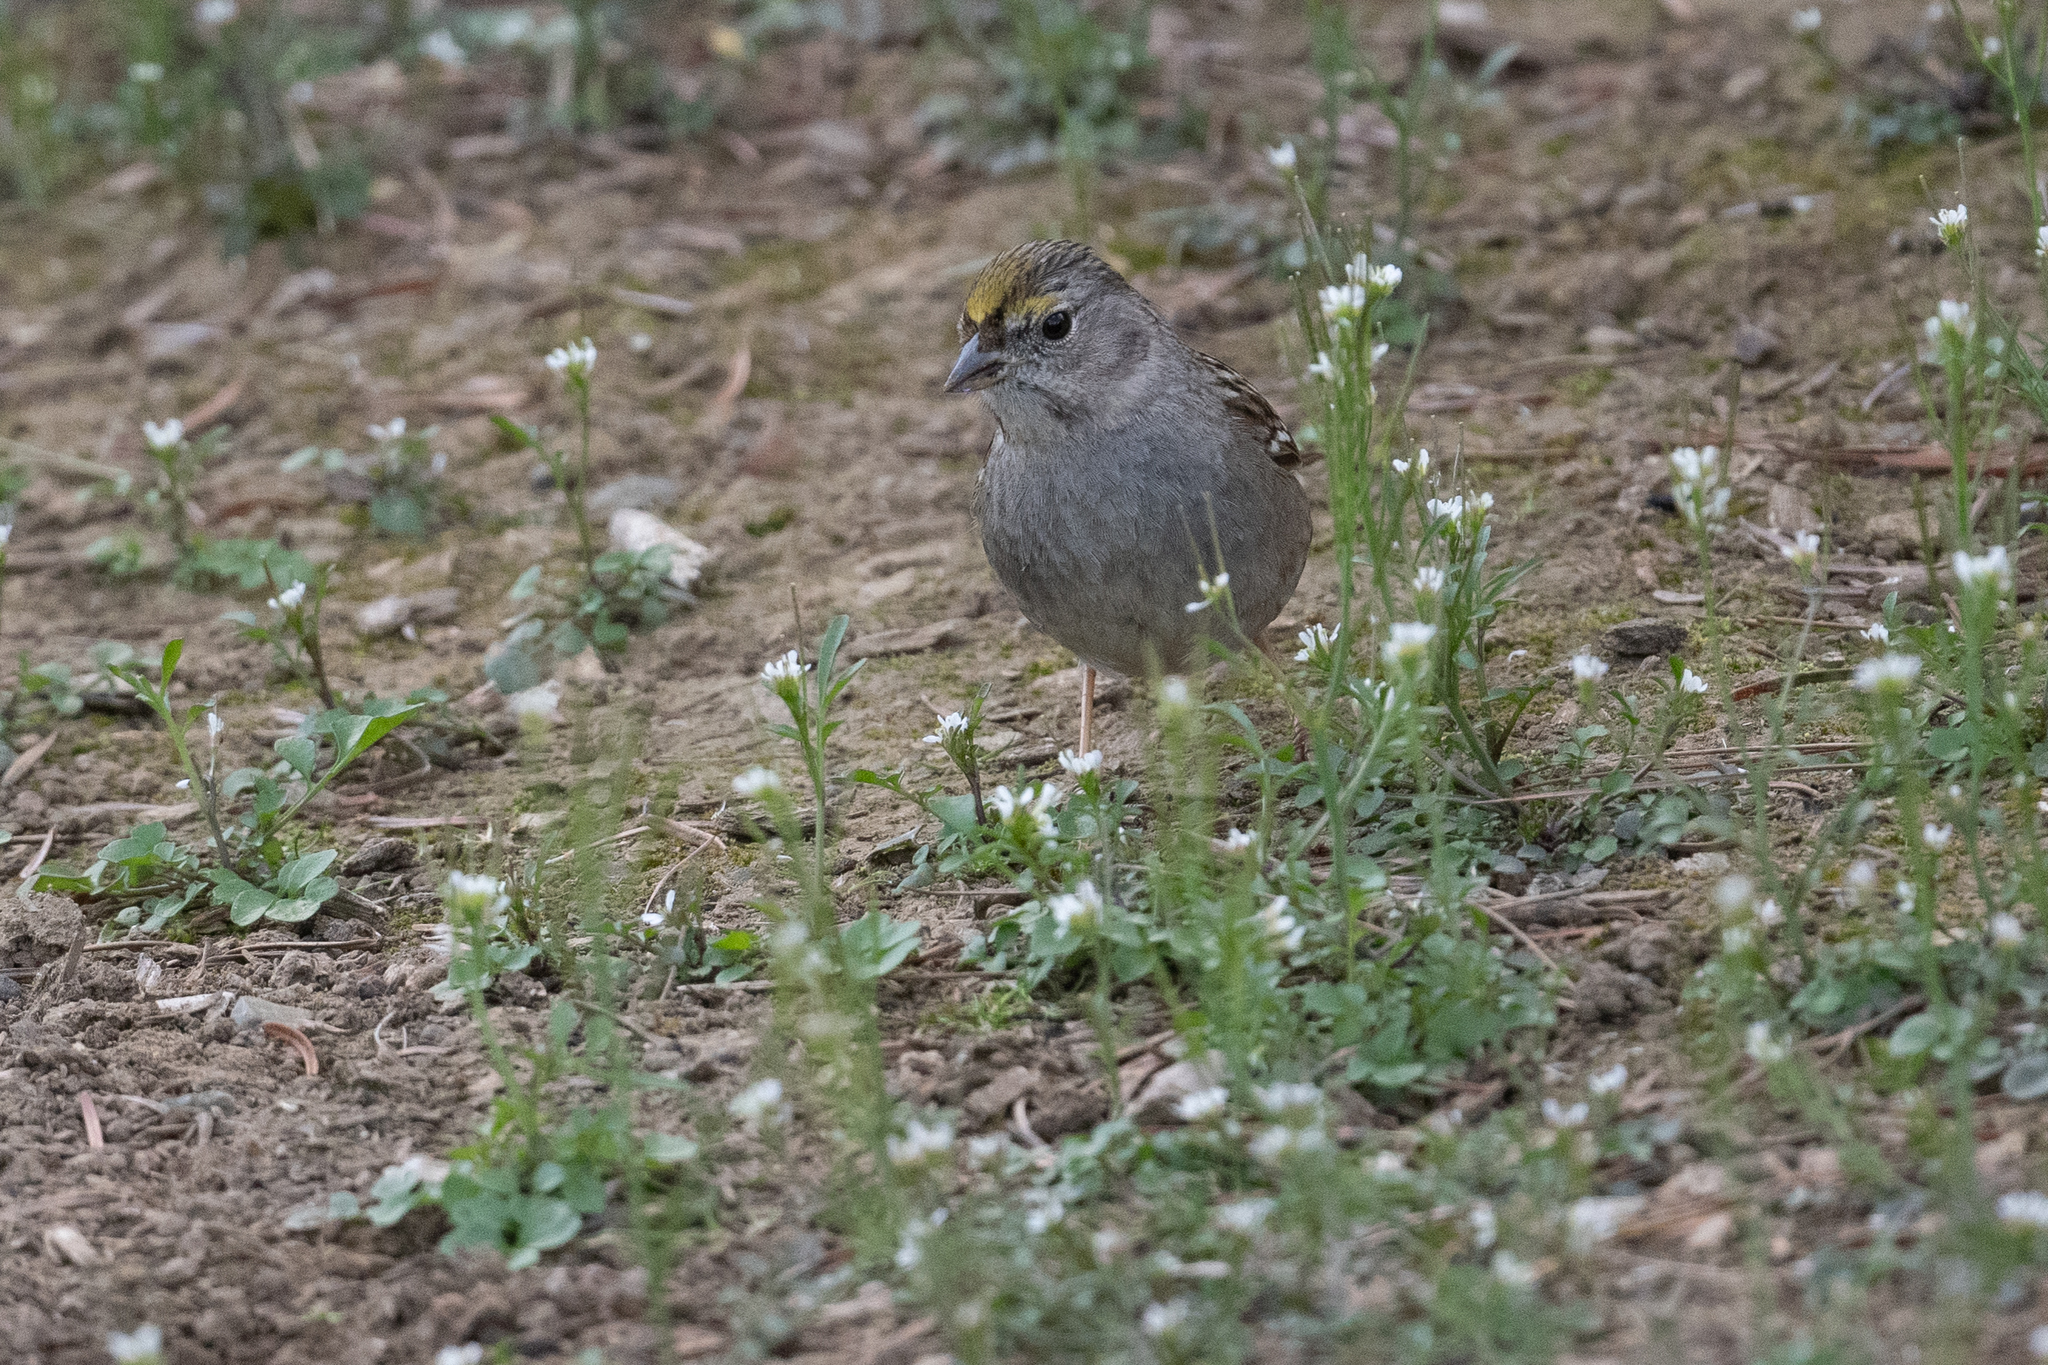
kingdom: Animalia
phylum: Chordata
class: Aves
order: Passeriformes
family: Passerellidae
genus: Zonotrichia
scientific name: Zonotrichia atricapilla
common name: Golden-crowned sparrow
